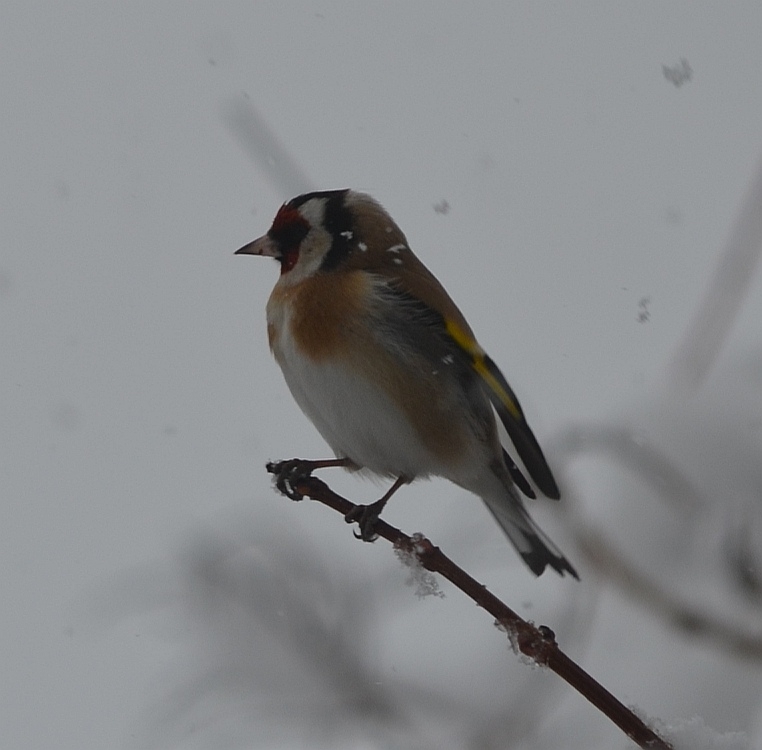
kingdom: Animalia
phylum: Chordata
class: Aves
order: Passeriformes
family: Fringillidae
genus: Carduelis
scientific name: Carduelis carduelis
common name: European goldfinch
